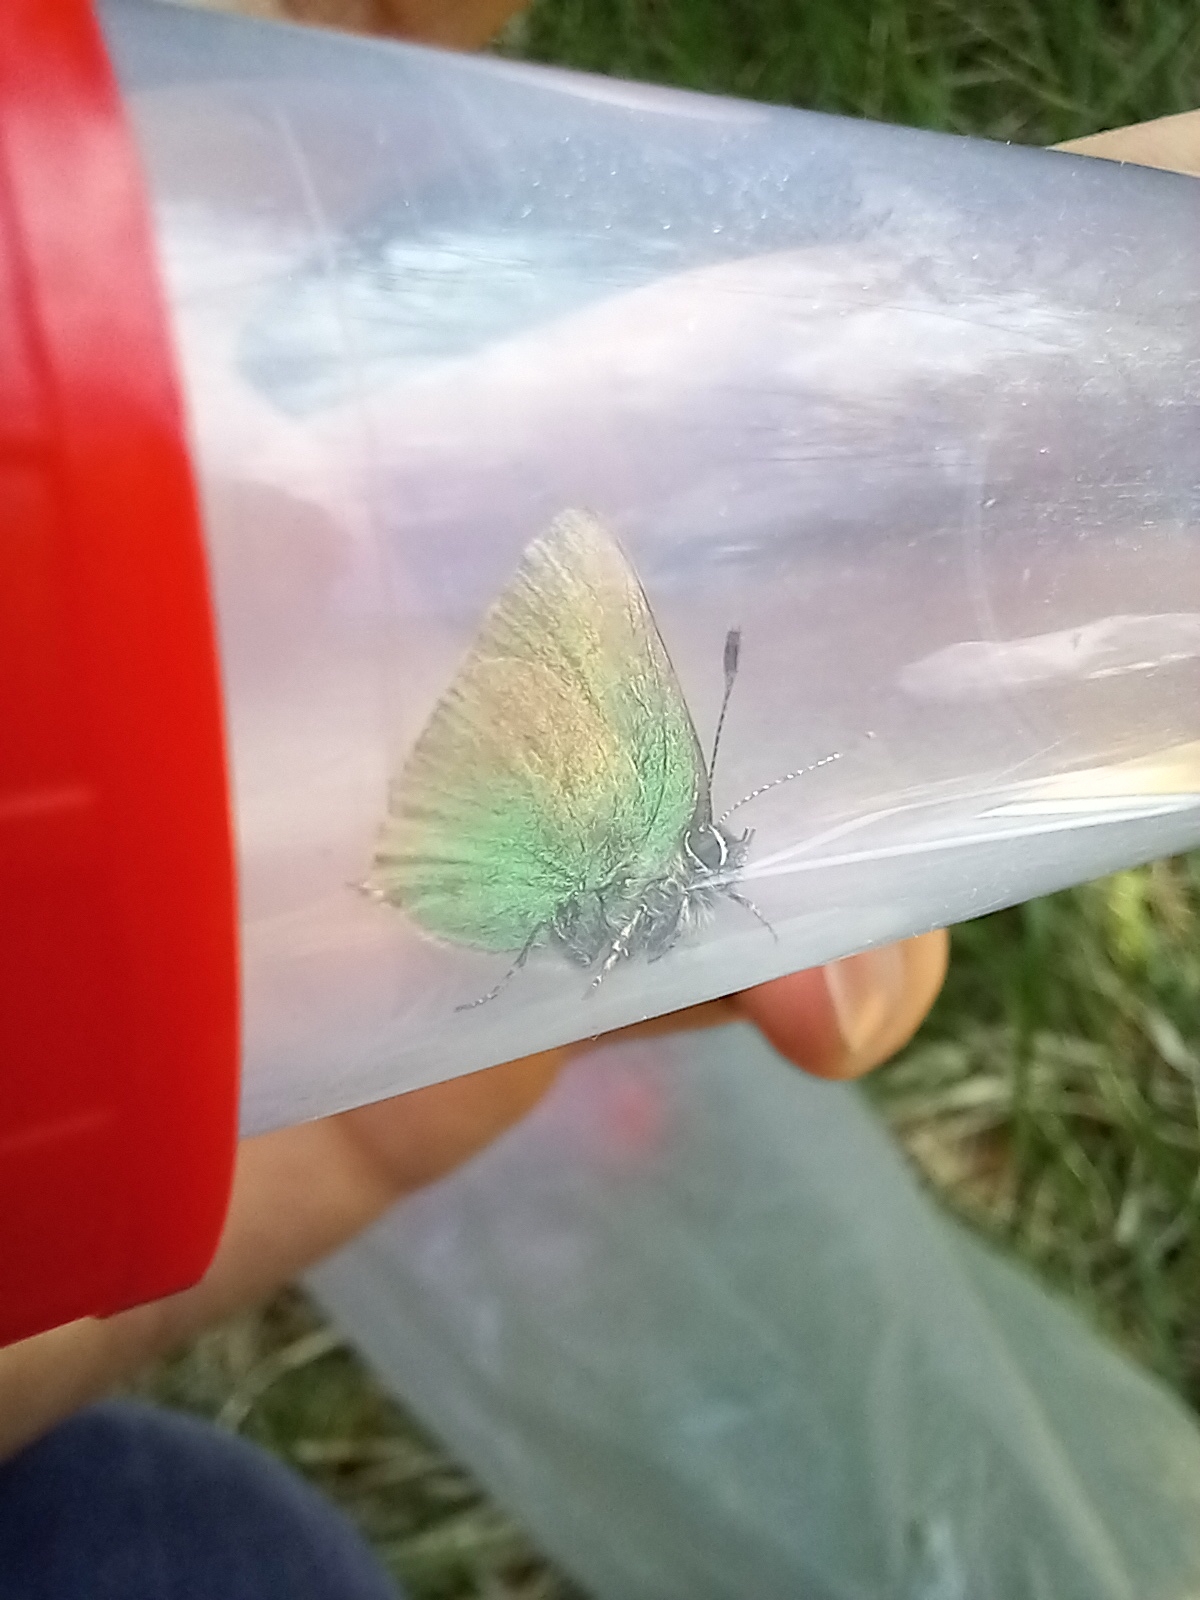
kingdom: Animalia
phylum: Arthropoda
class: Insecta
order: Lepidoptera
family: Lycaenidae
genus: Callophrys
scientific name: Callophrys rubi
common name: Green hairstreak
